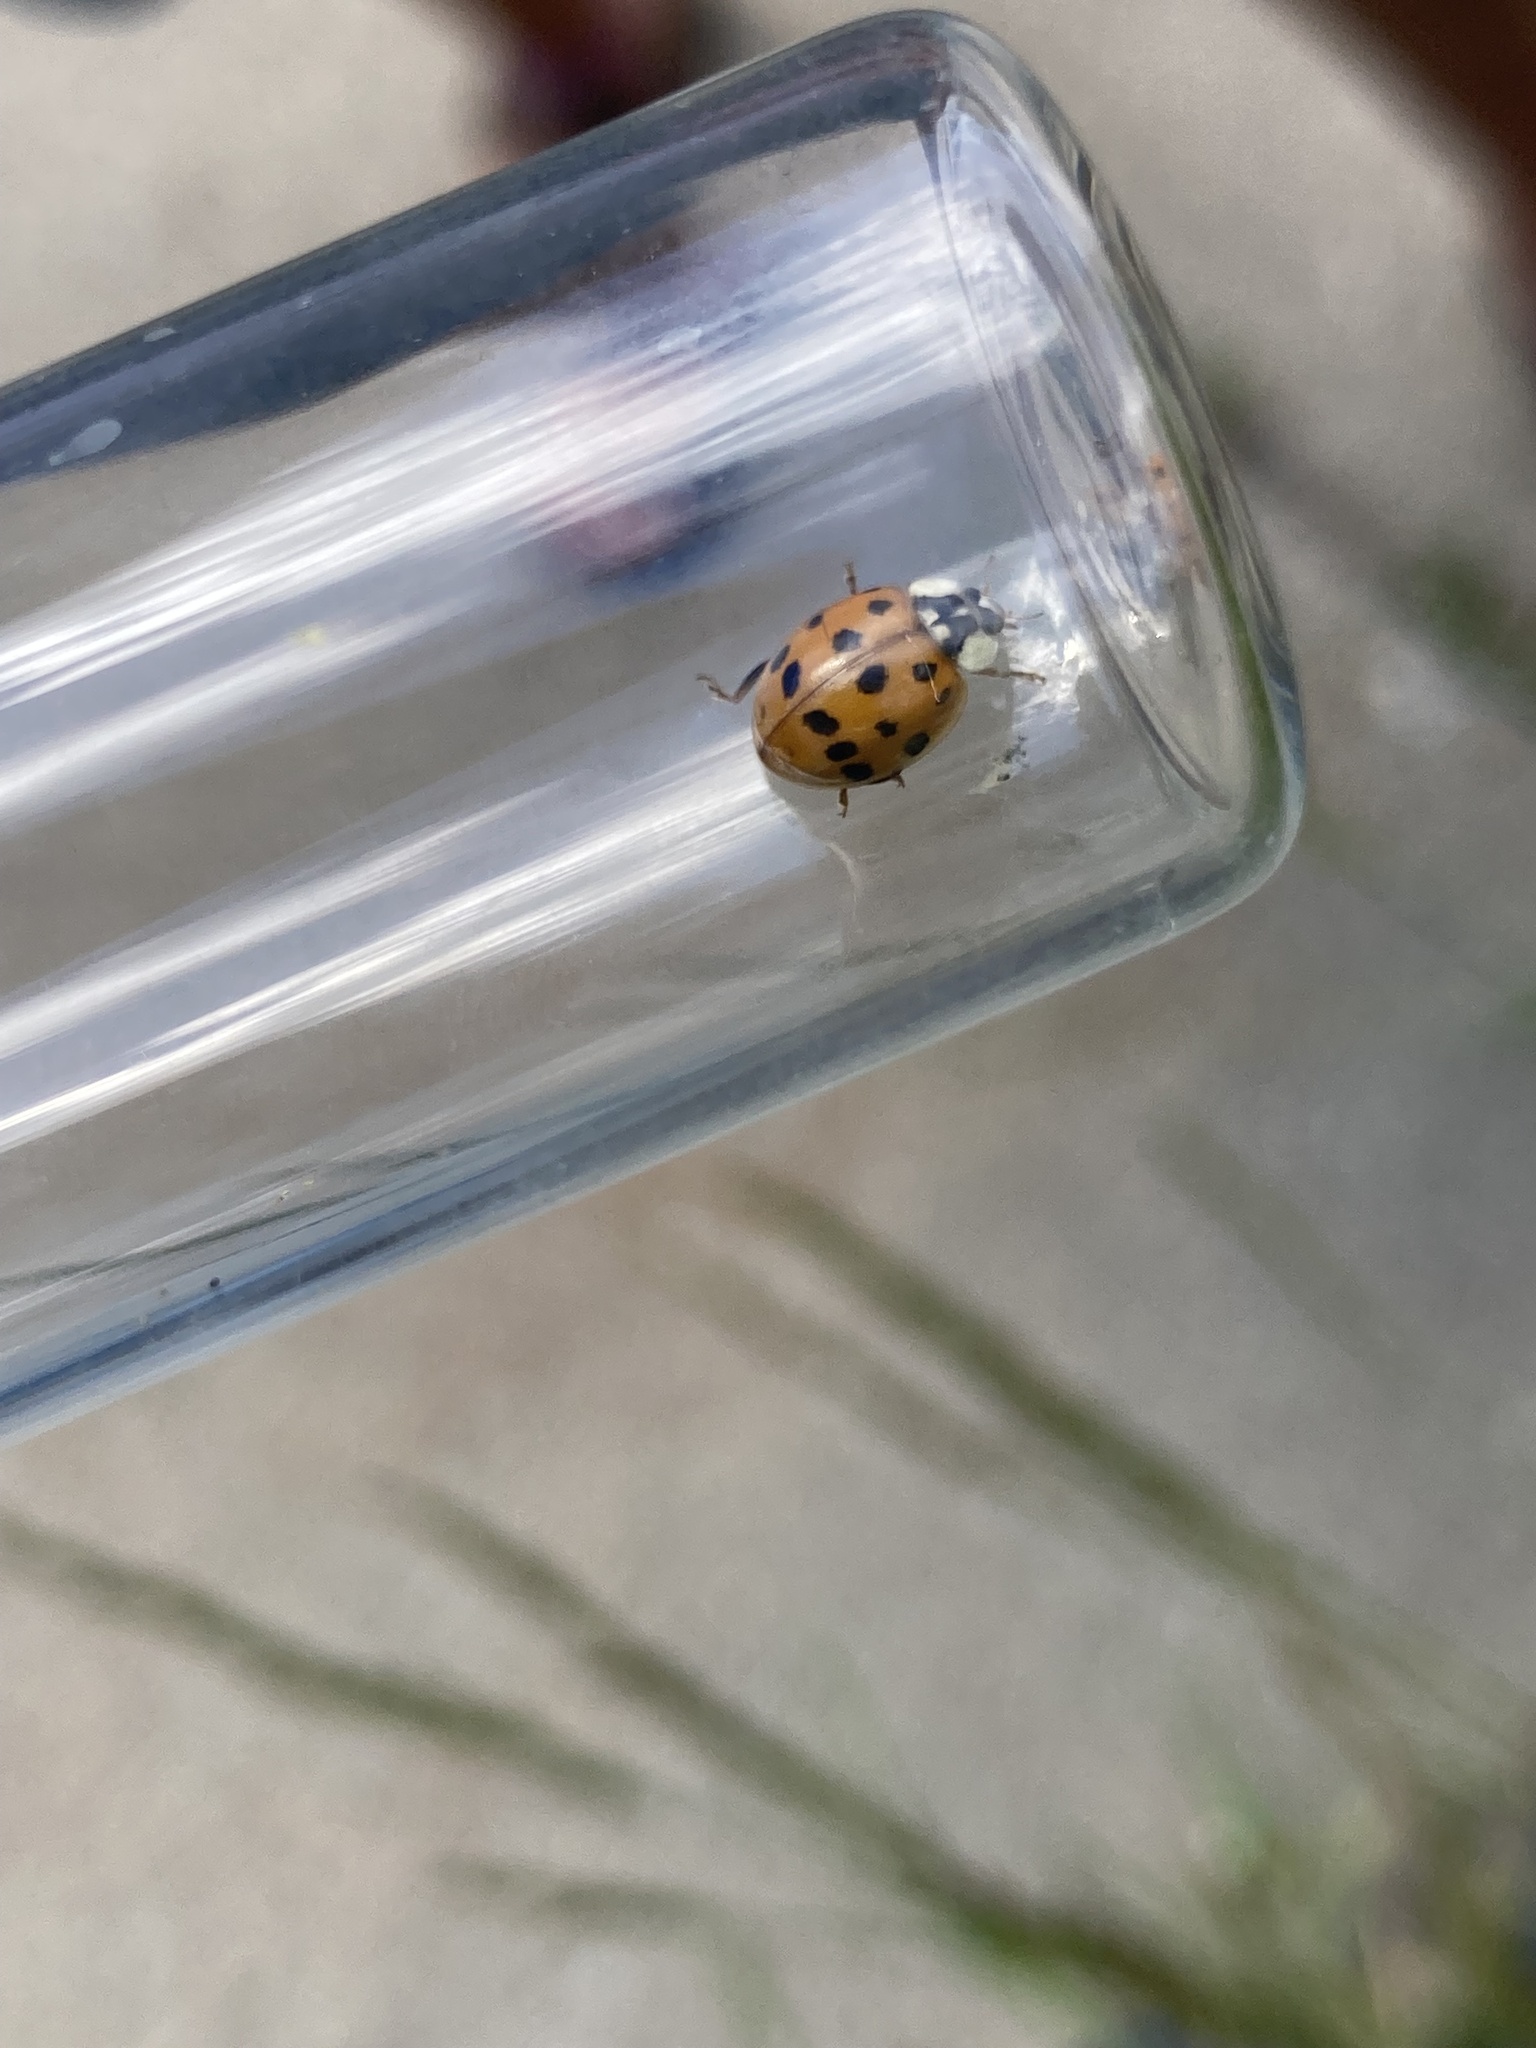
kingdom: Animalia
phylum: Arthropoda
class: Insecta
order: Coleoptera
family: Coccinellidae
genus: Harmonia
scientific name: Harmonia axyridis
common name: Harlequin ladybird
